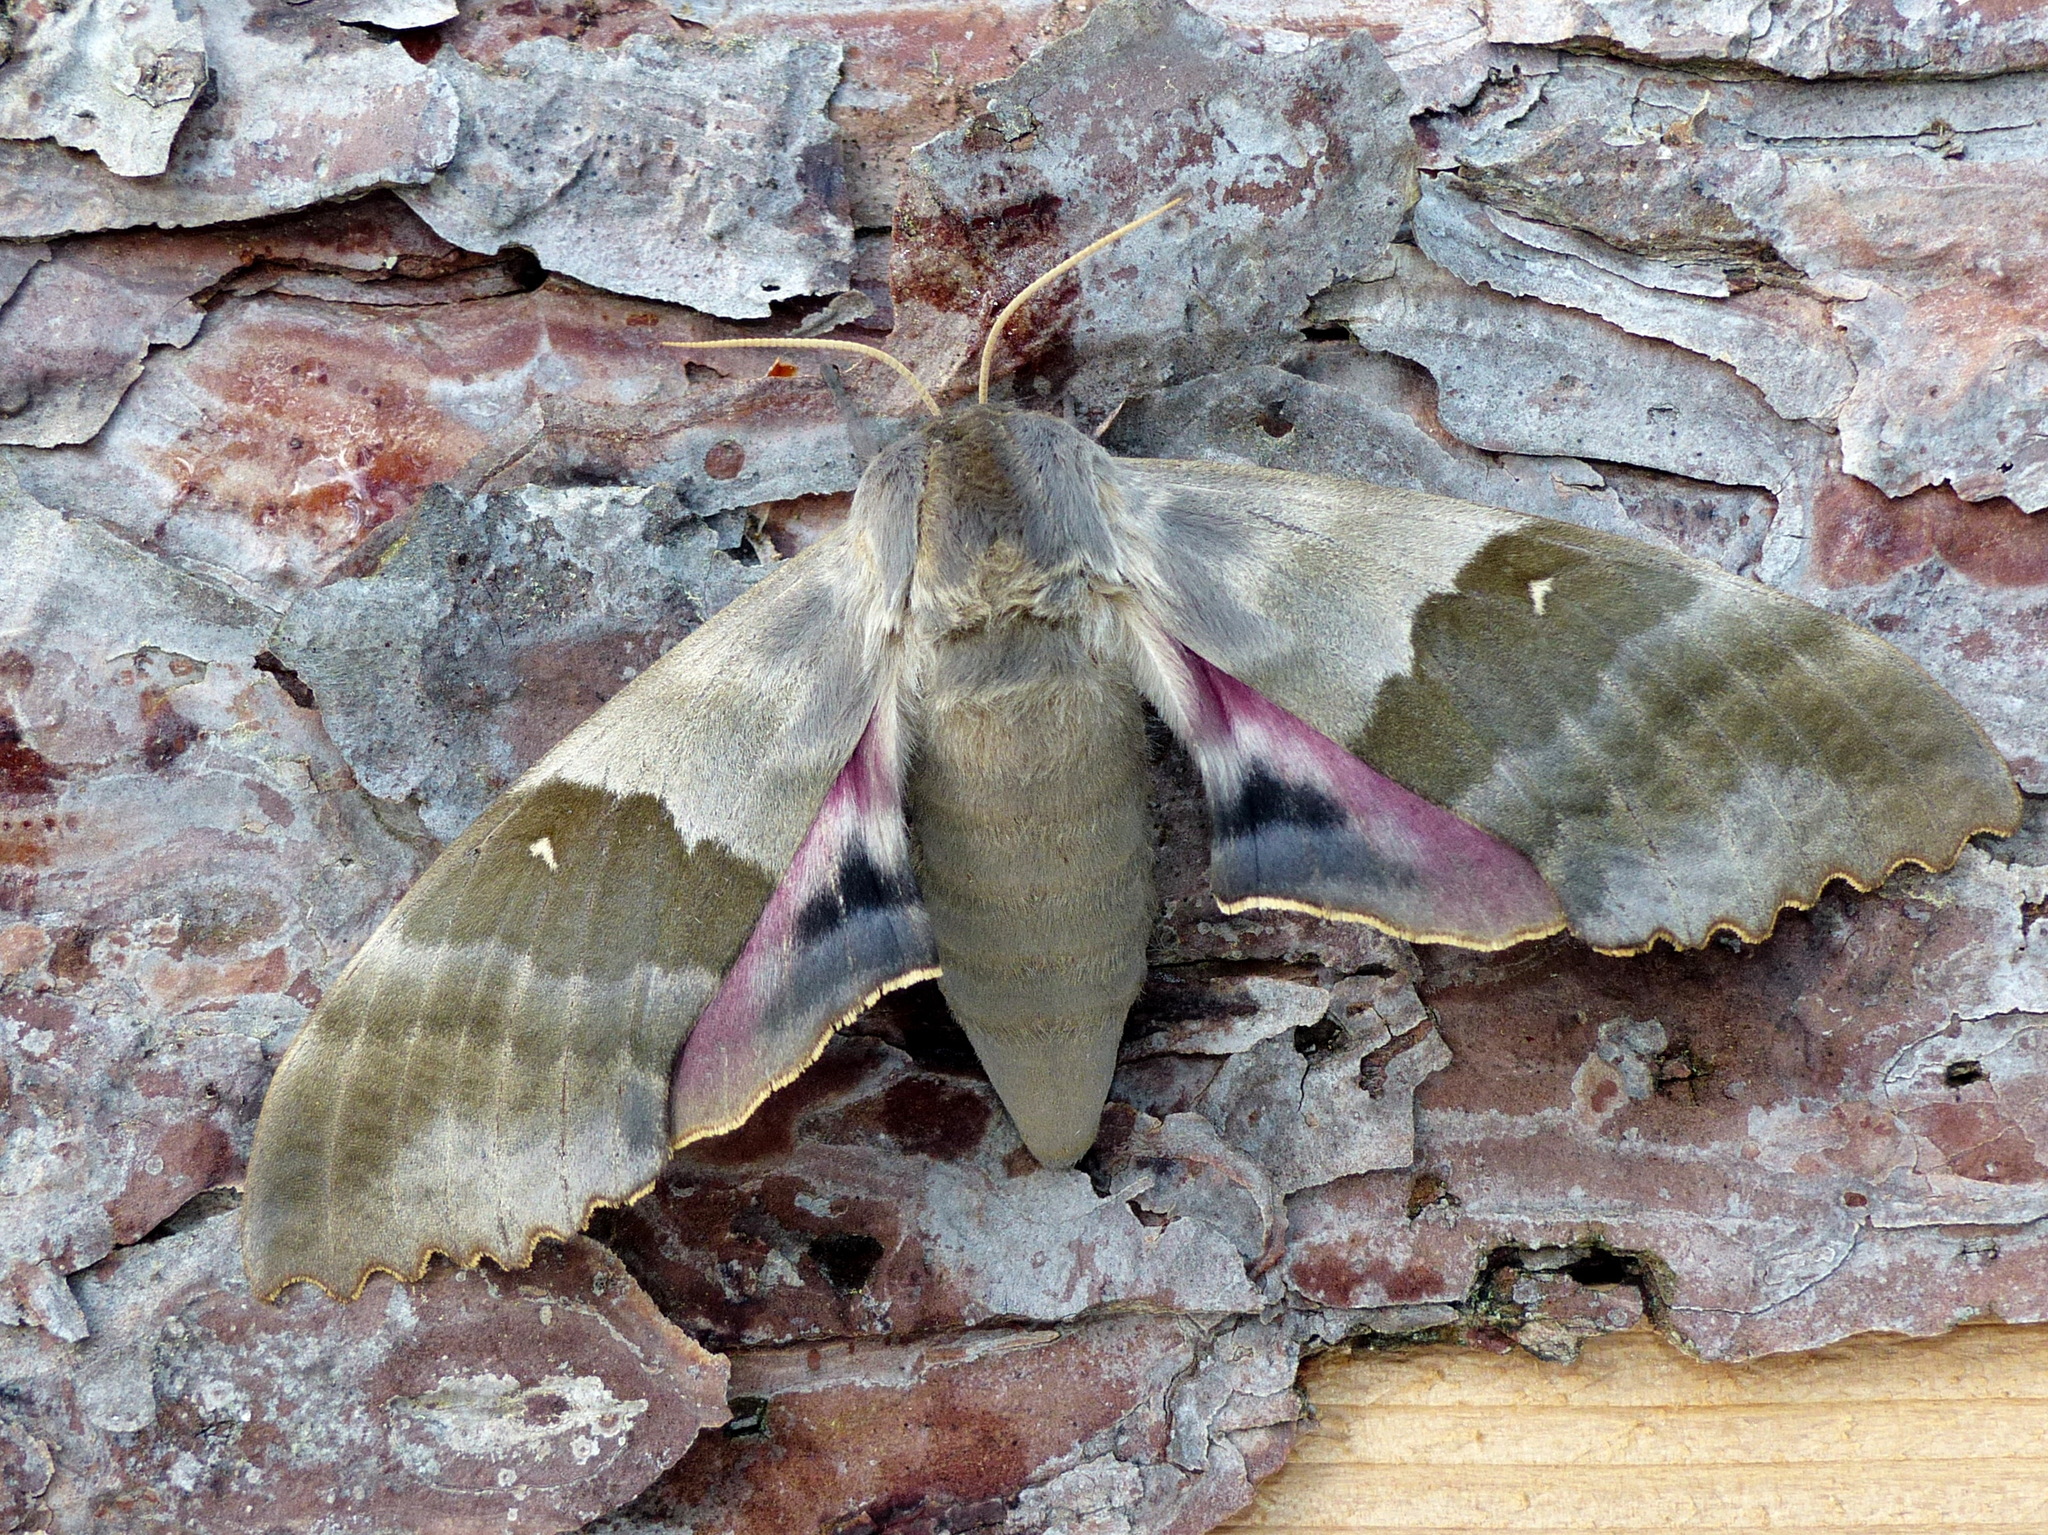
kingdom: Animalia
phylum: Arthropoda
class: Insecta
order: Lepidoptera
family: Sphingidae
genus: Pachysphinx
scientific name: Pachysphinx modesta
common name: Big poplar sphinx
